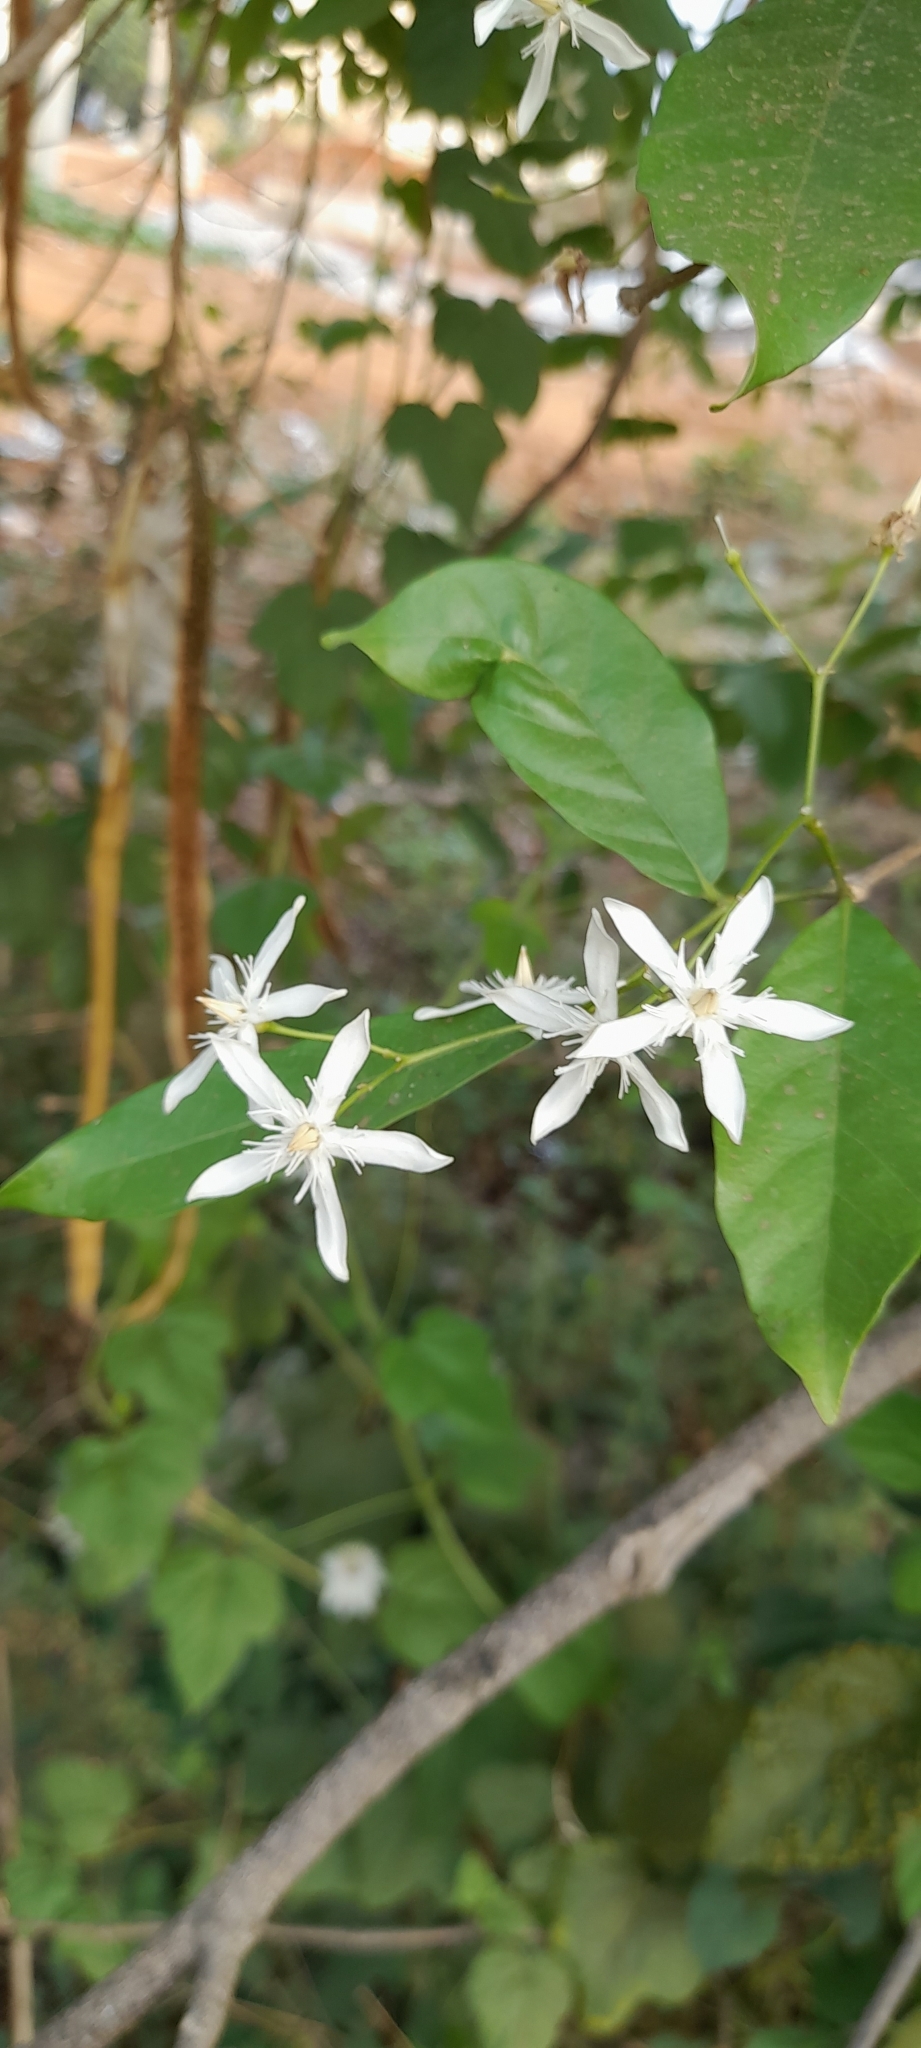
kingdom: Plantae
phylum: Tracheophyta
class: Magnoliopsida
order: Gentianales
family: Apocynaceae
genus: Wrightia
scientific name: Wrightia tinctoria
